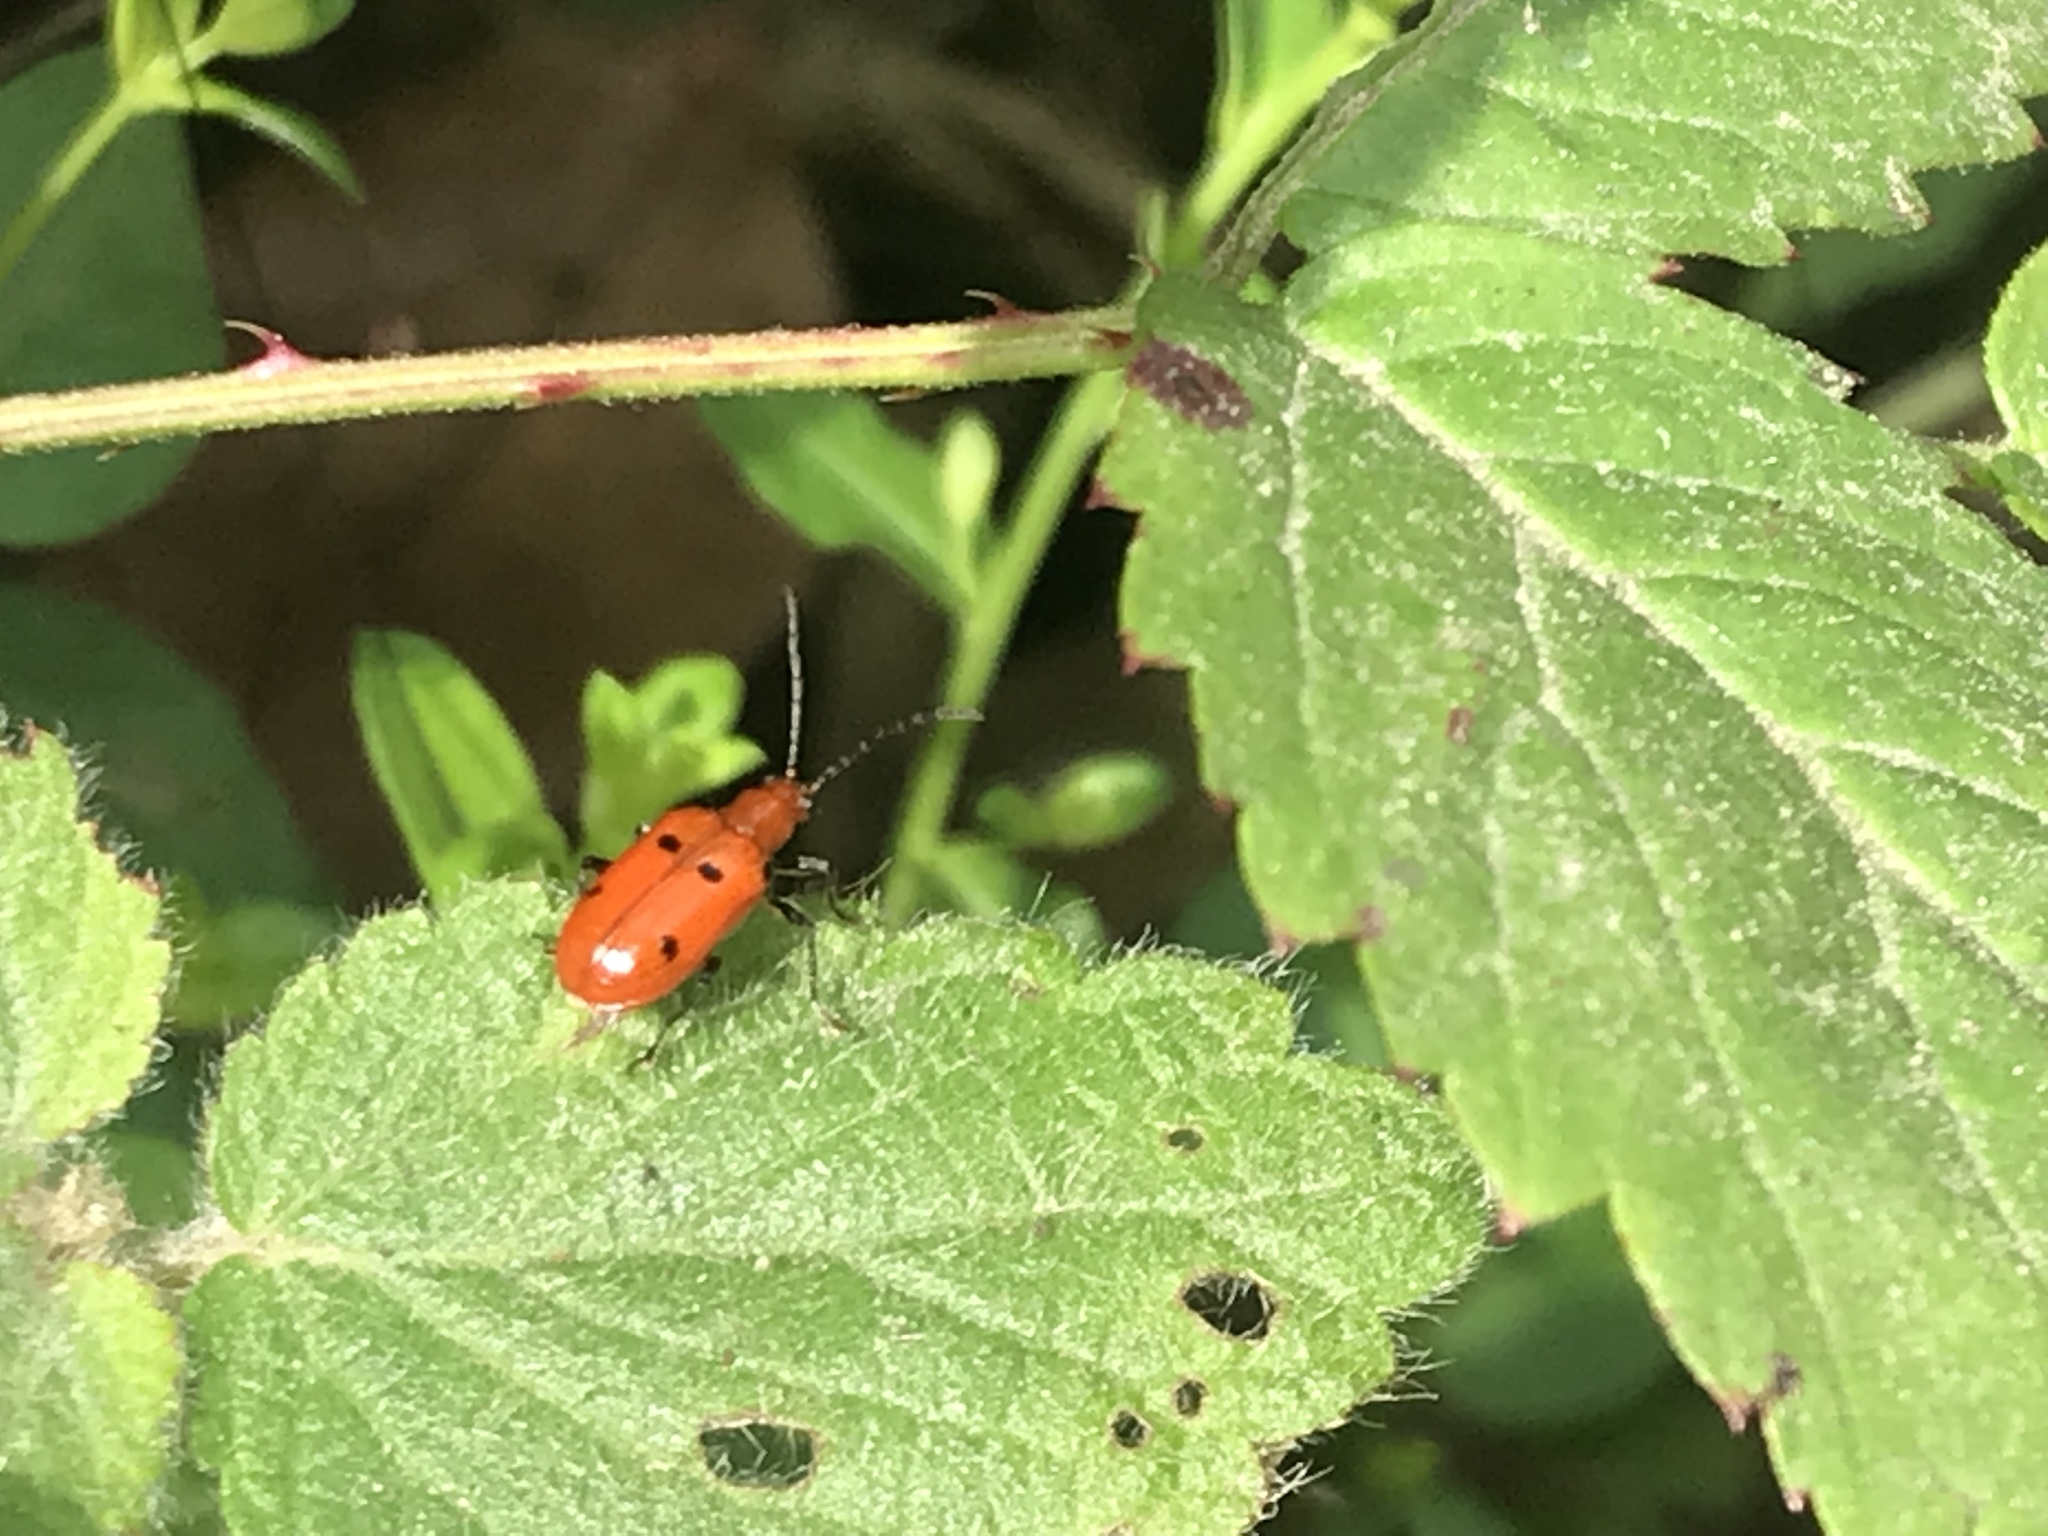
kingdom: Animalia
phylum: Arthropoda
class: Insecta
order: Coleoptera
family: Chrysomelidae
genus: Neolema
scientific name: Neolema quadriguttata
